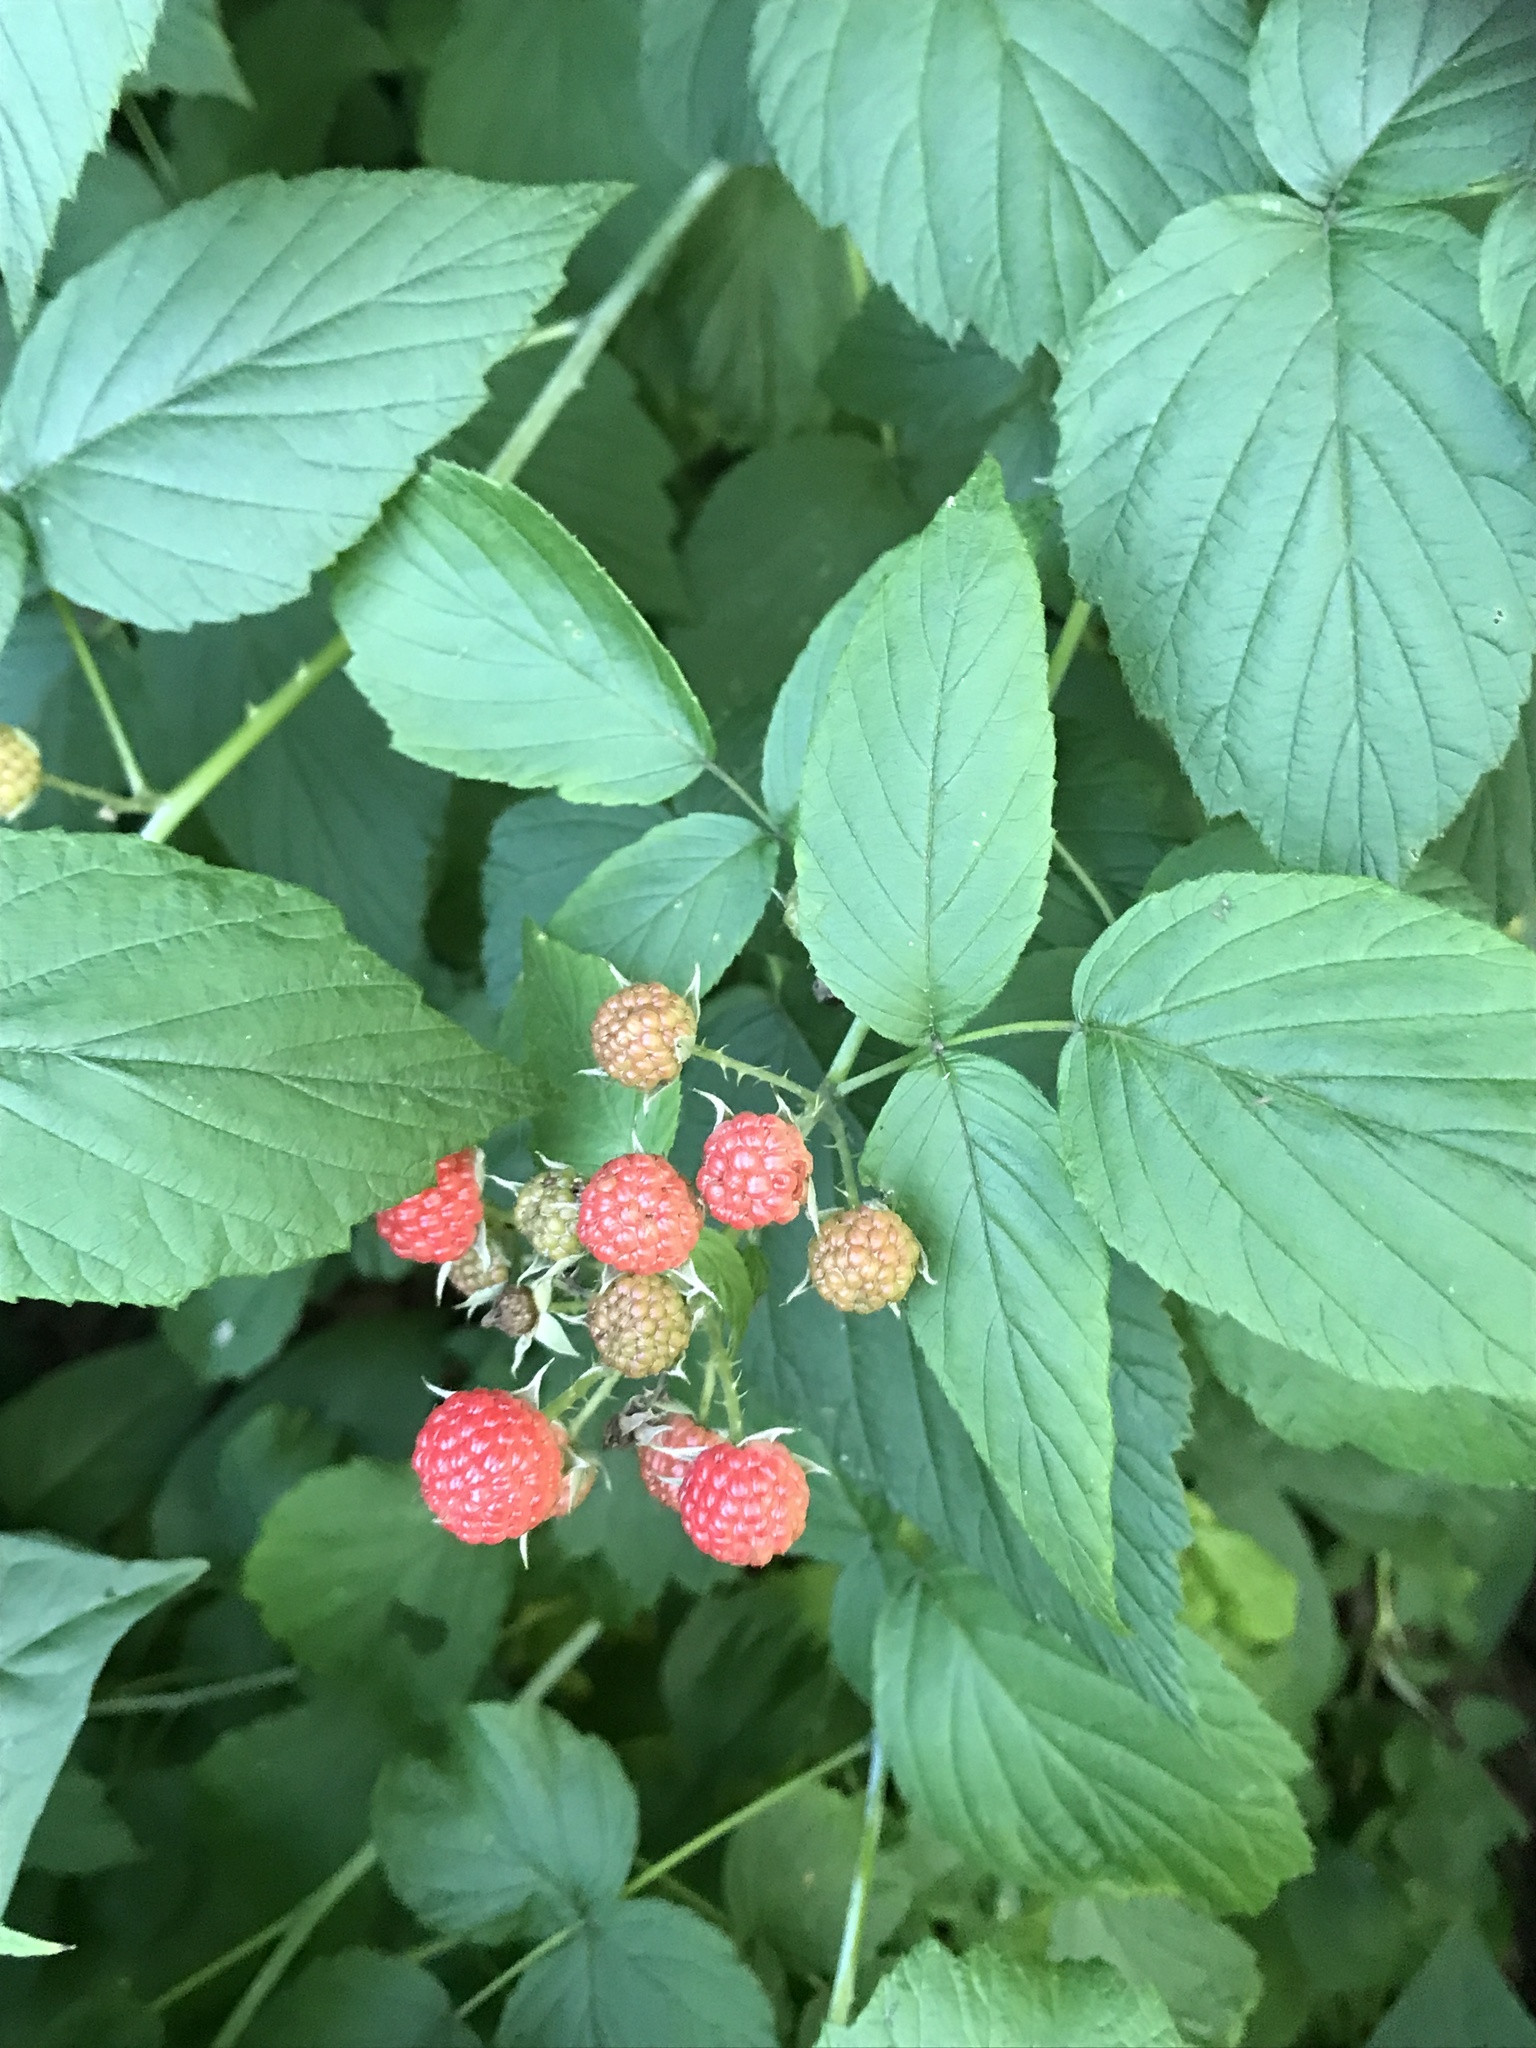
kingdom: Plantae
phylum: Tracheophyta
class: Magnoliopsida
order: Rosales
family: Rosaceae
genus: Rubus
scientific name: Rubus occidentalis
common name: Black raspberry
